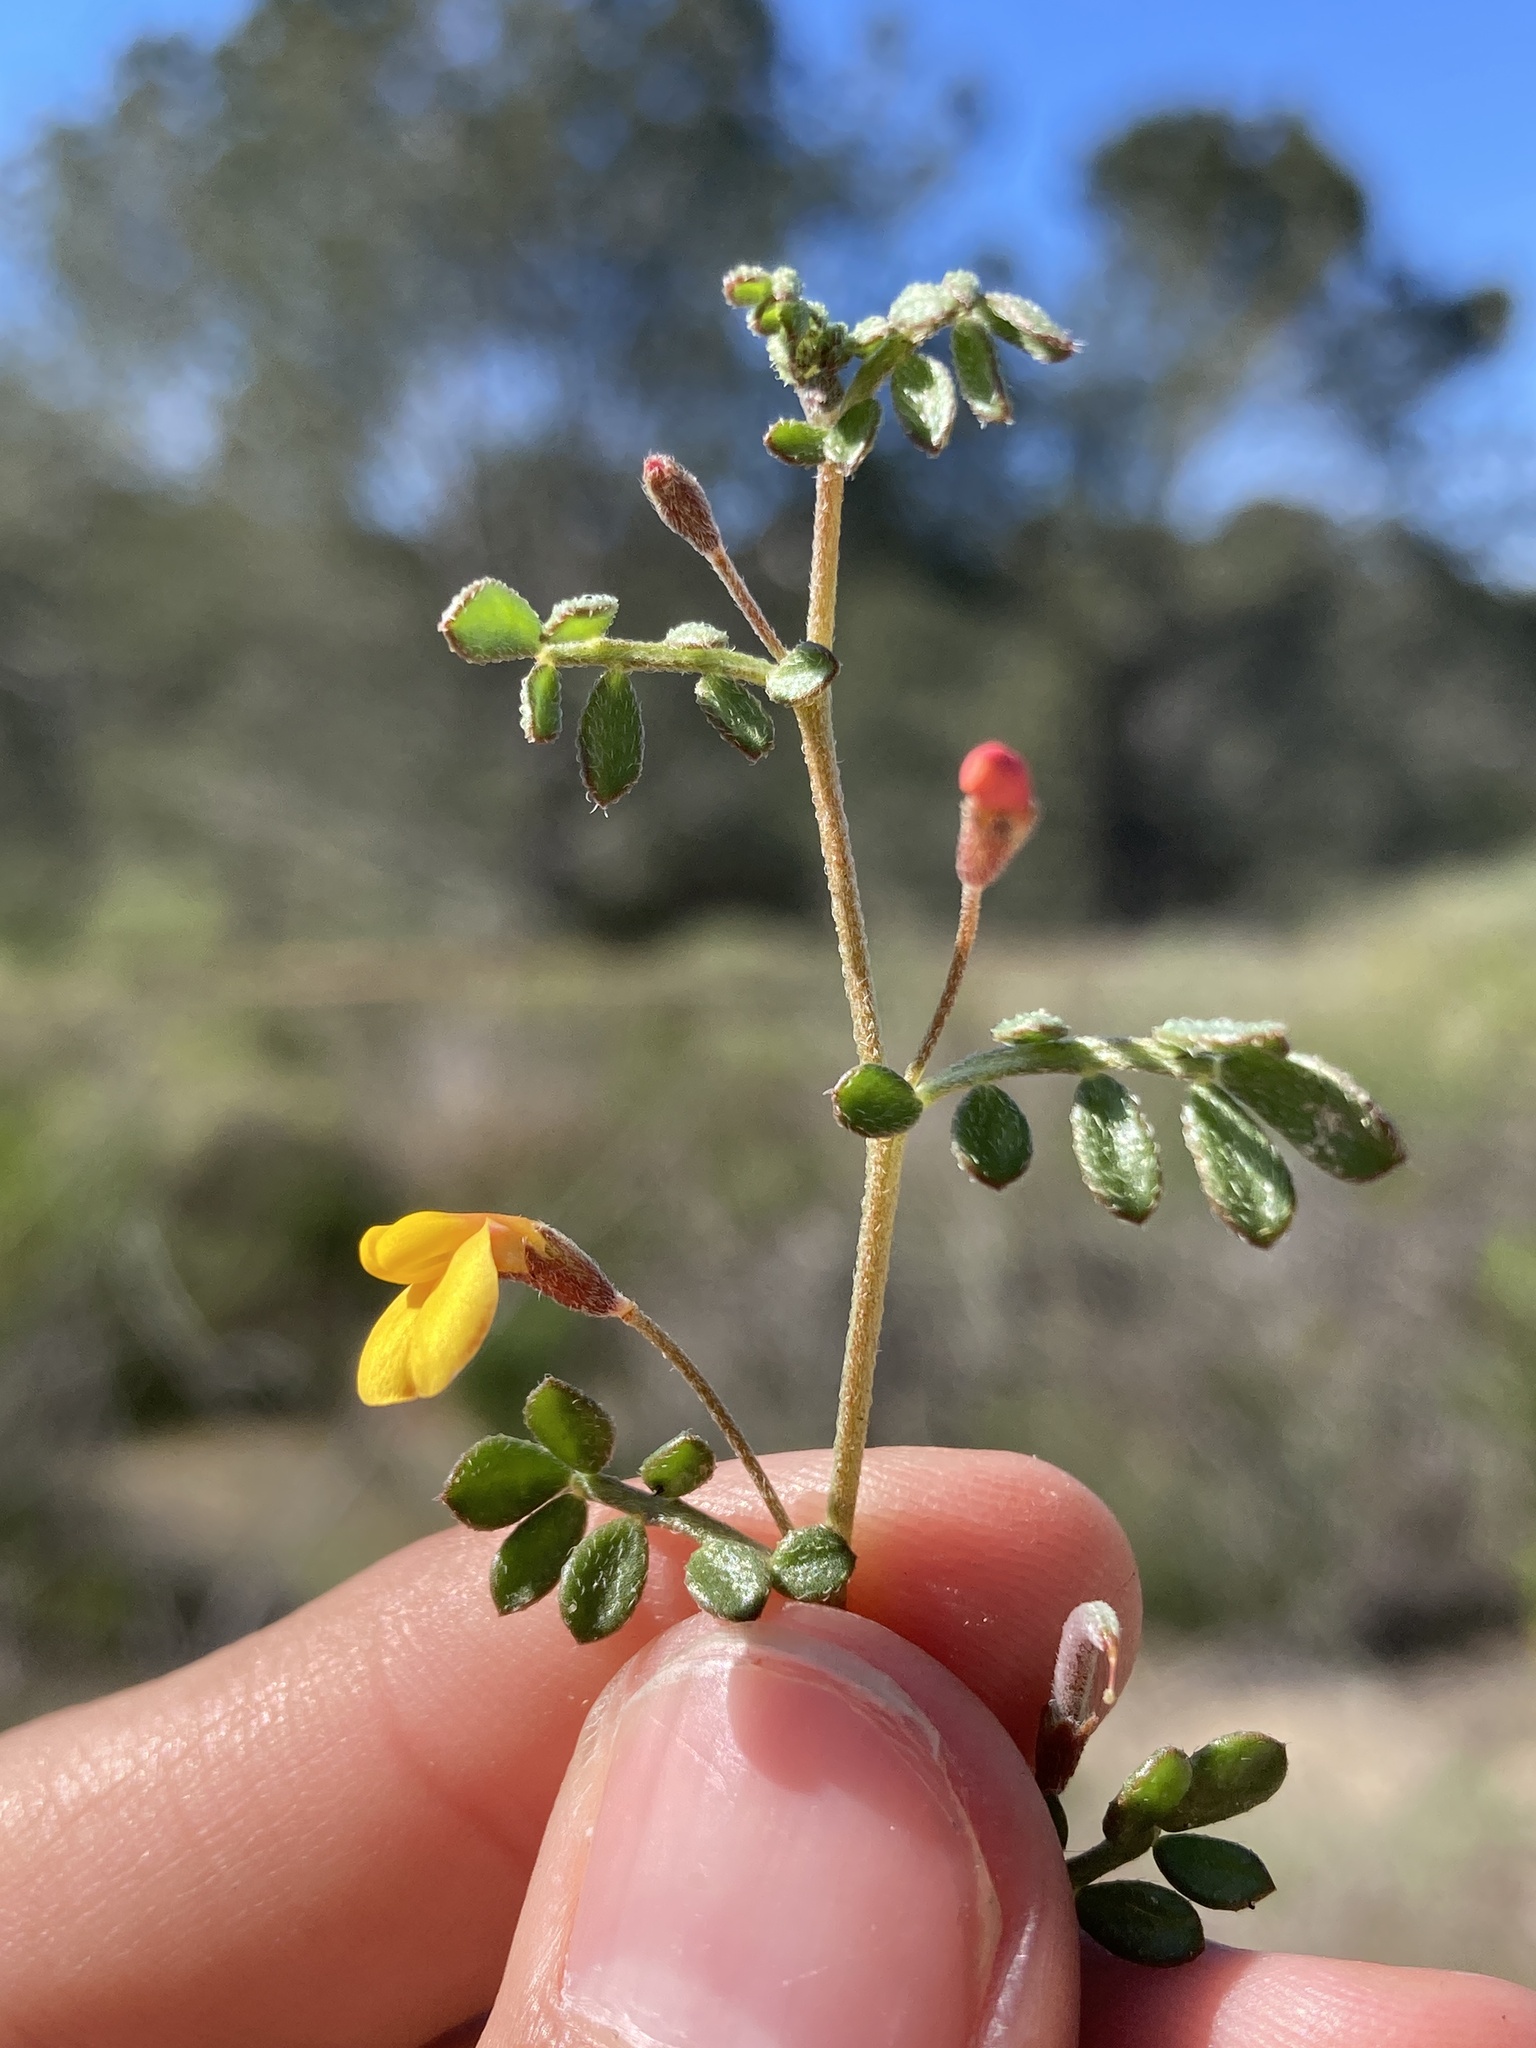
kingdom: Plantae
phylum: Tracheophyta
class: Magnoliopsida
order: Fabales
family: Fabaceae
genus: Acmispon
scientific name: Acmispon strigosus
